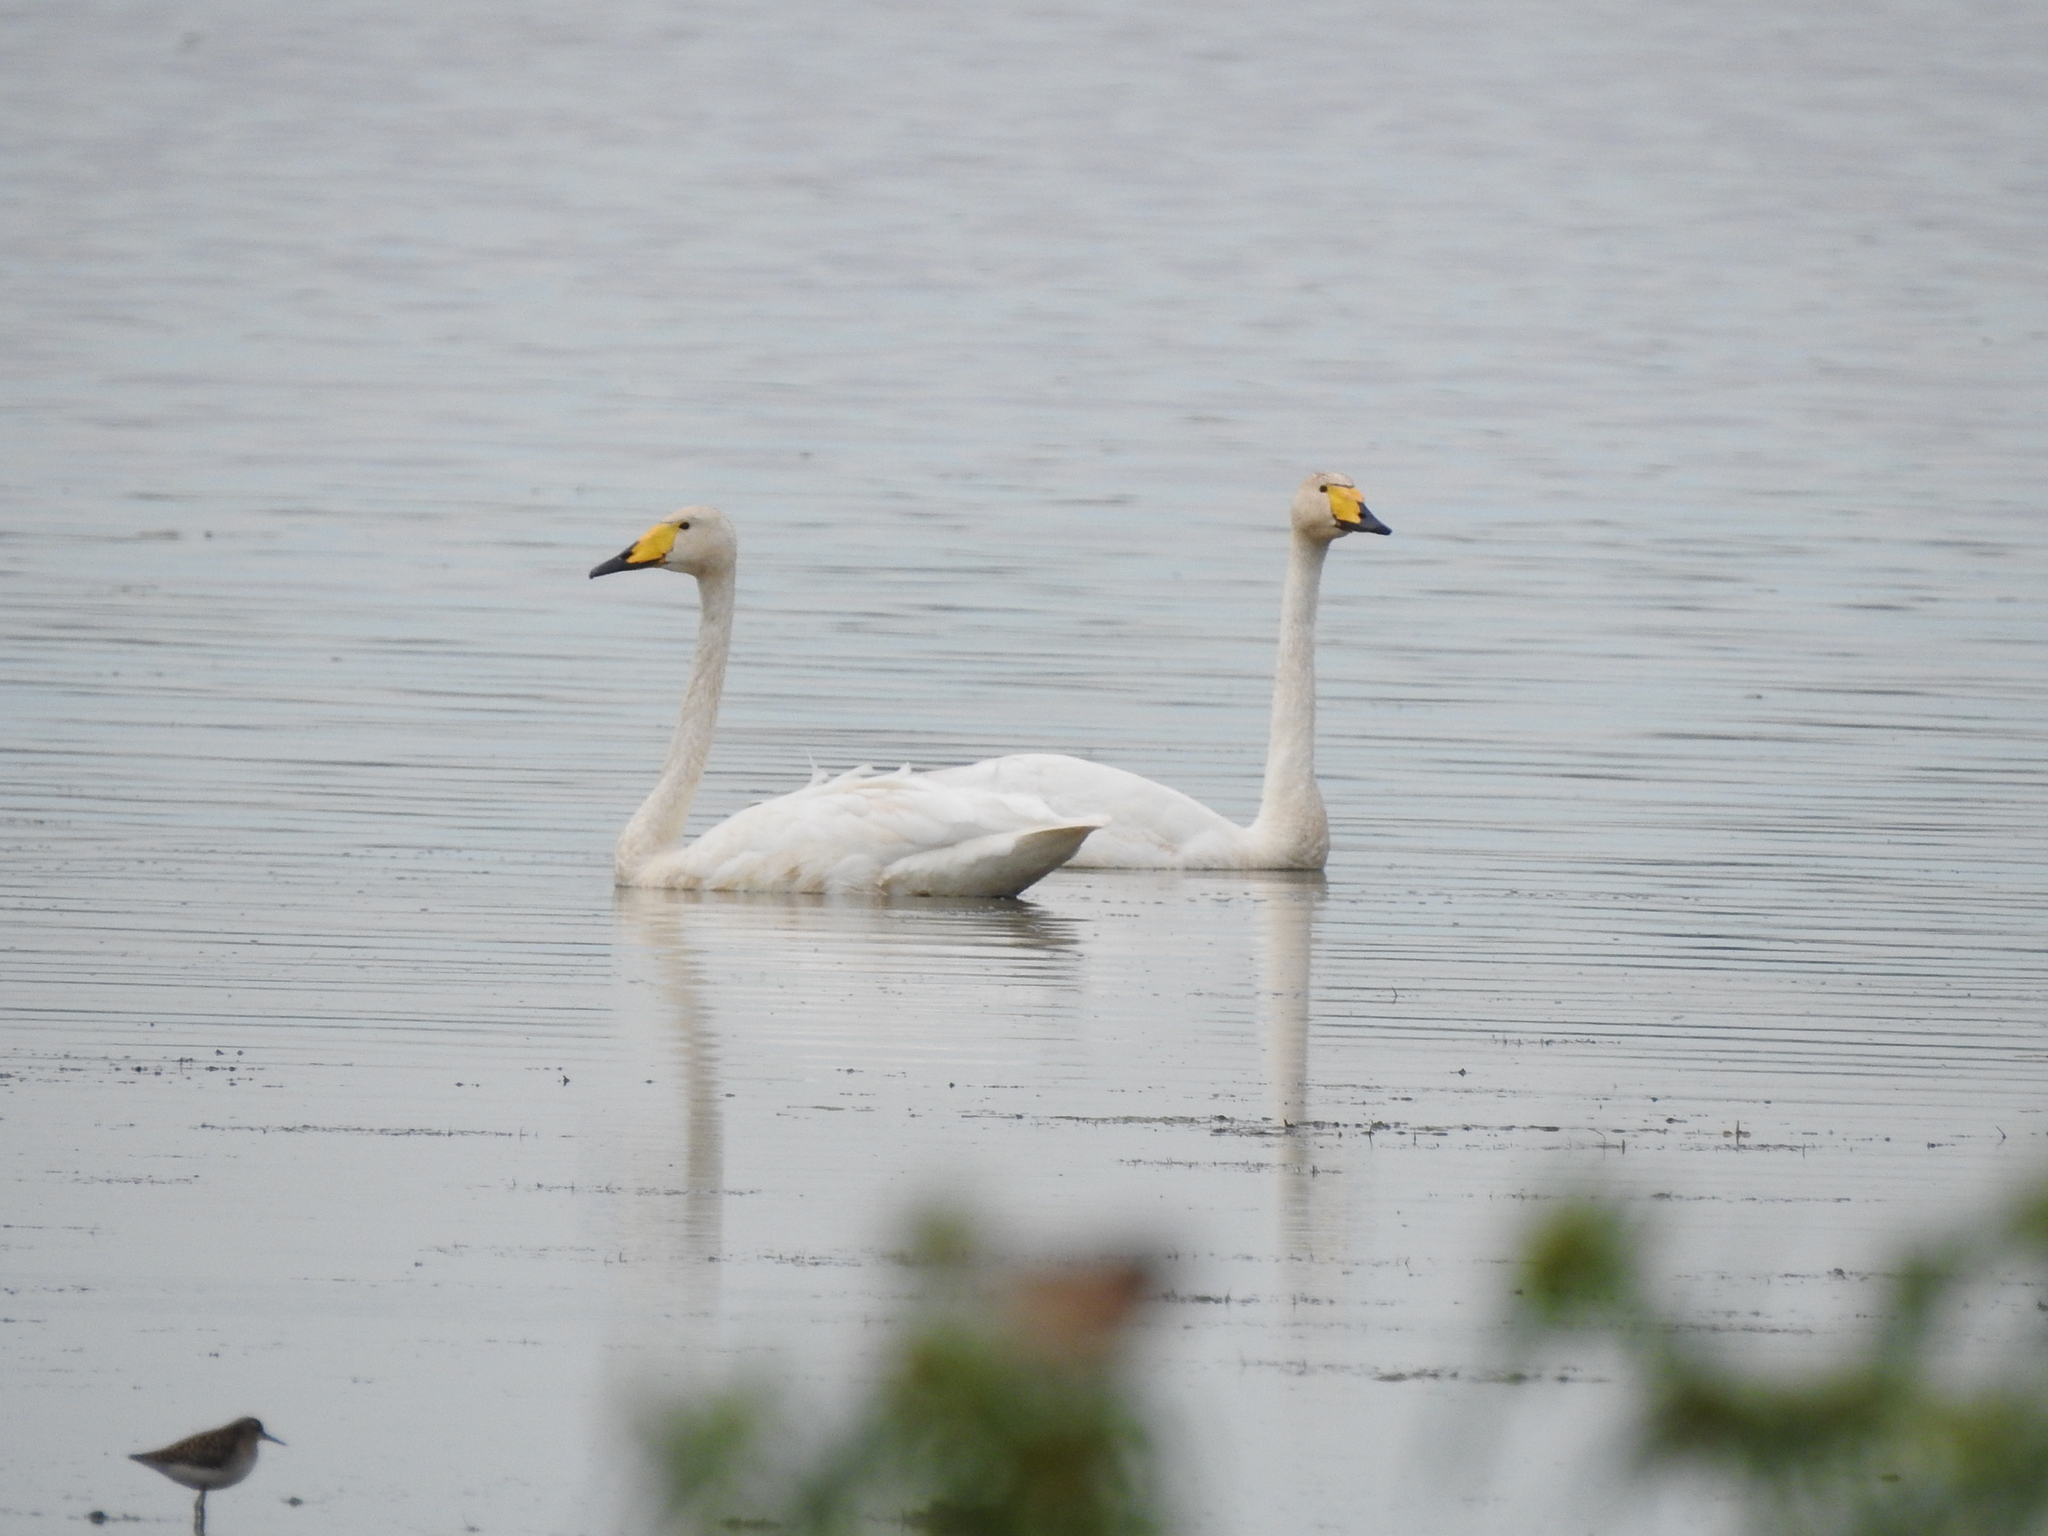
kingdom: Animalia
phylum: Chordata
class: Aves
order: Anseriformes
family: Anatidae
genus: Cygnus
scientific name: Cygnus cygnus
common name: Whooper swan
